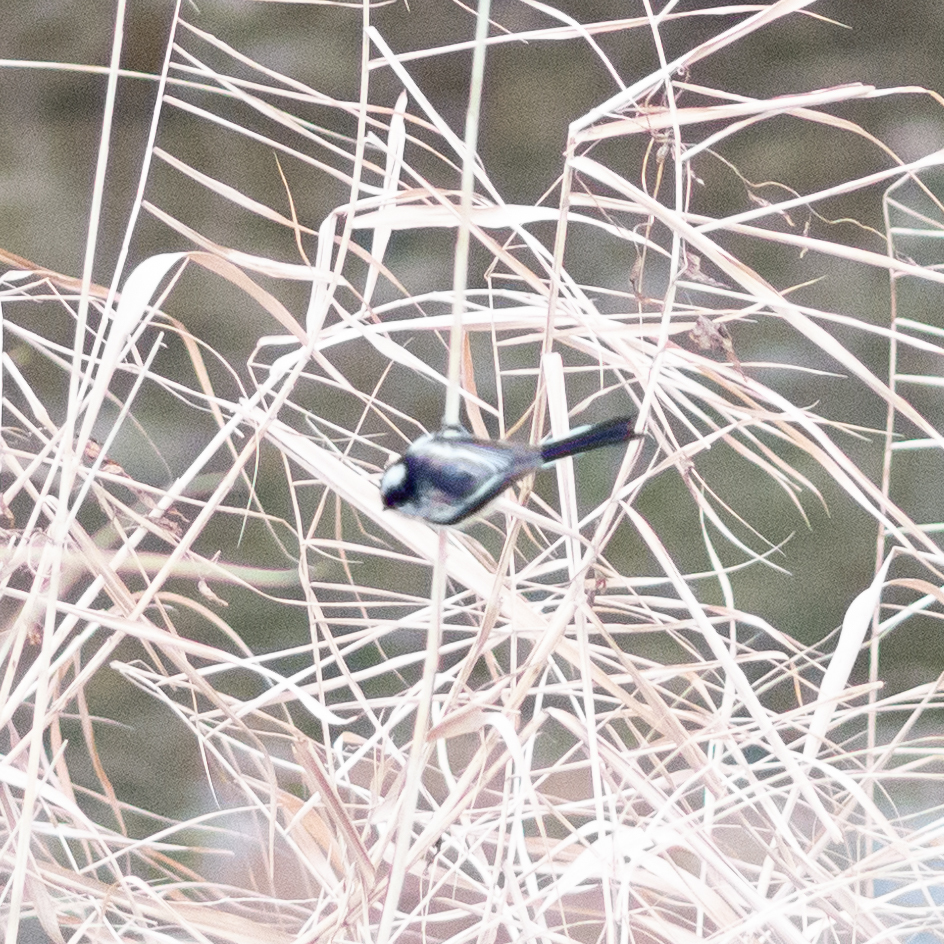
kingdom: Animalia
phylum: Chordata
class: Aves
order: Passeriformes
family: Aegithalidae
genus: Aegithalos
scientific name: Aegithalos caudatus
